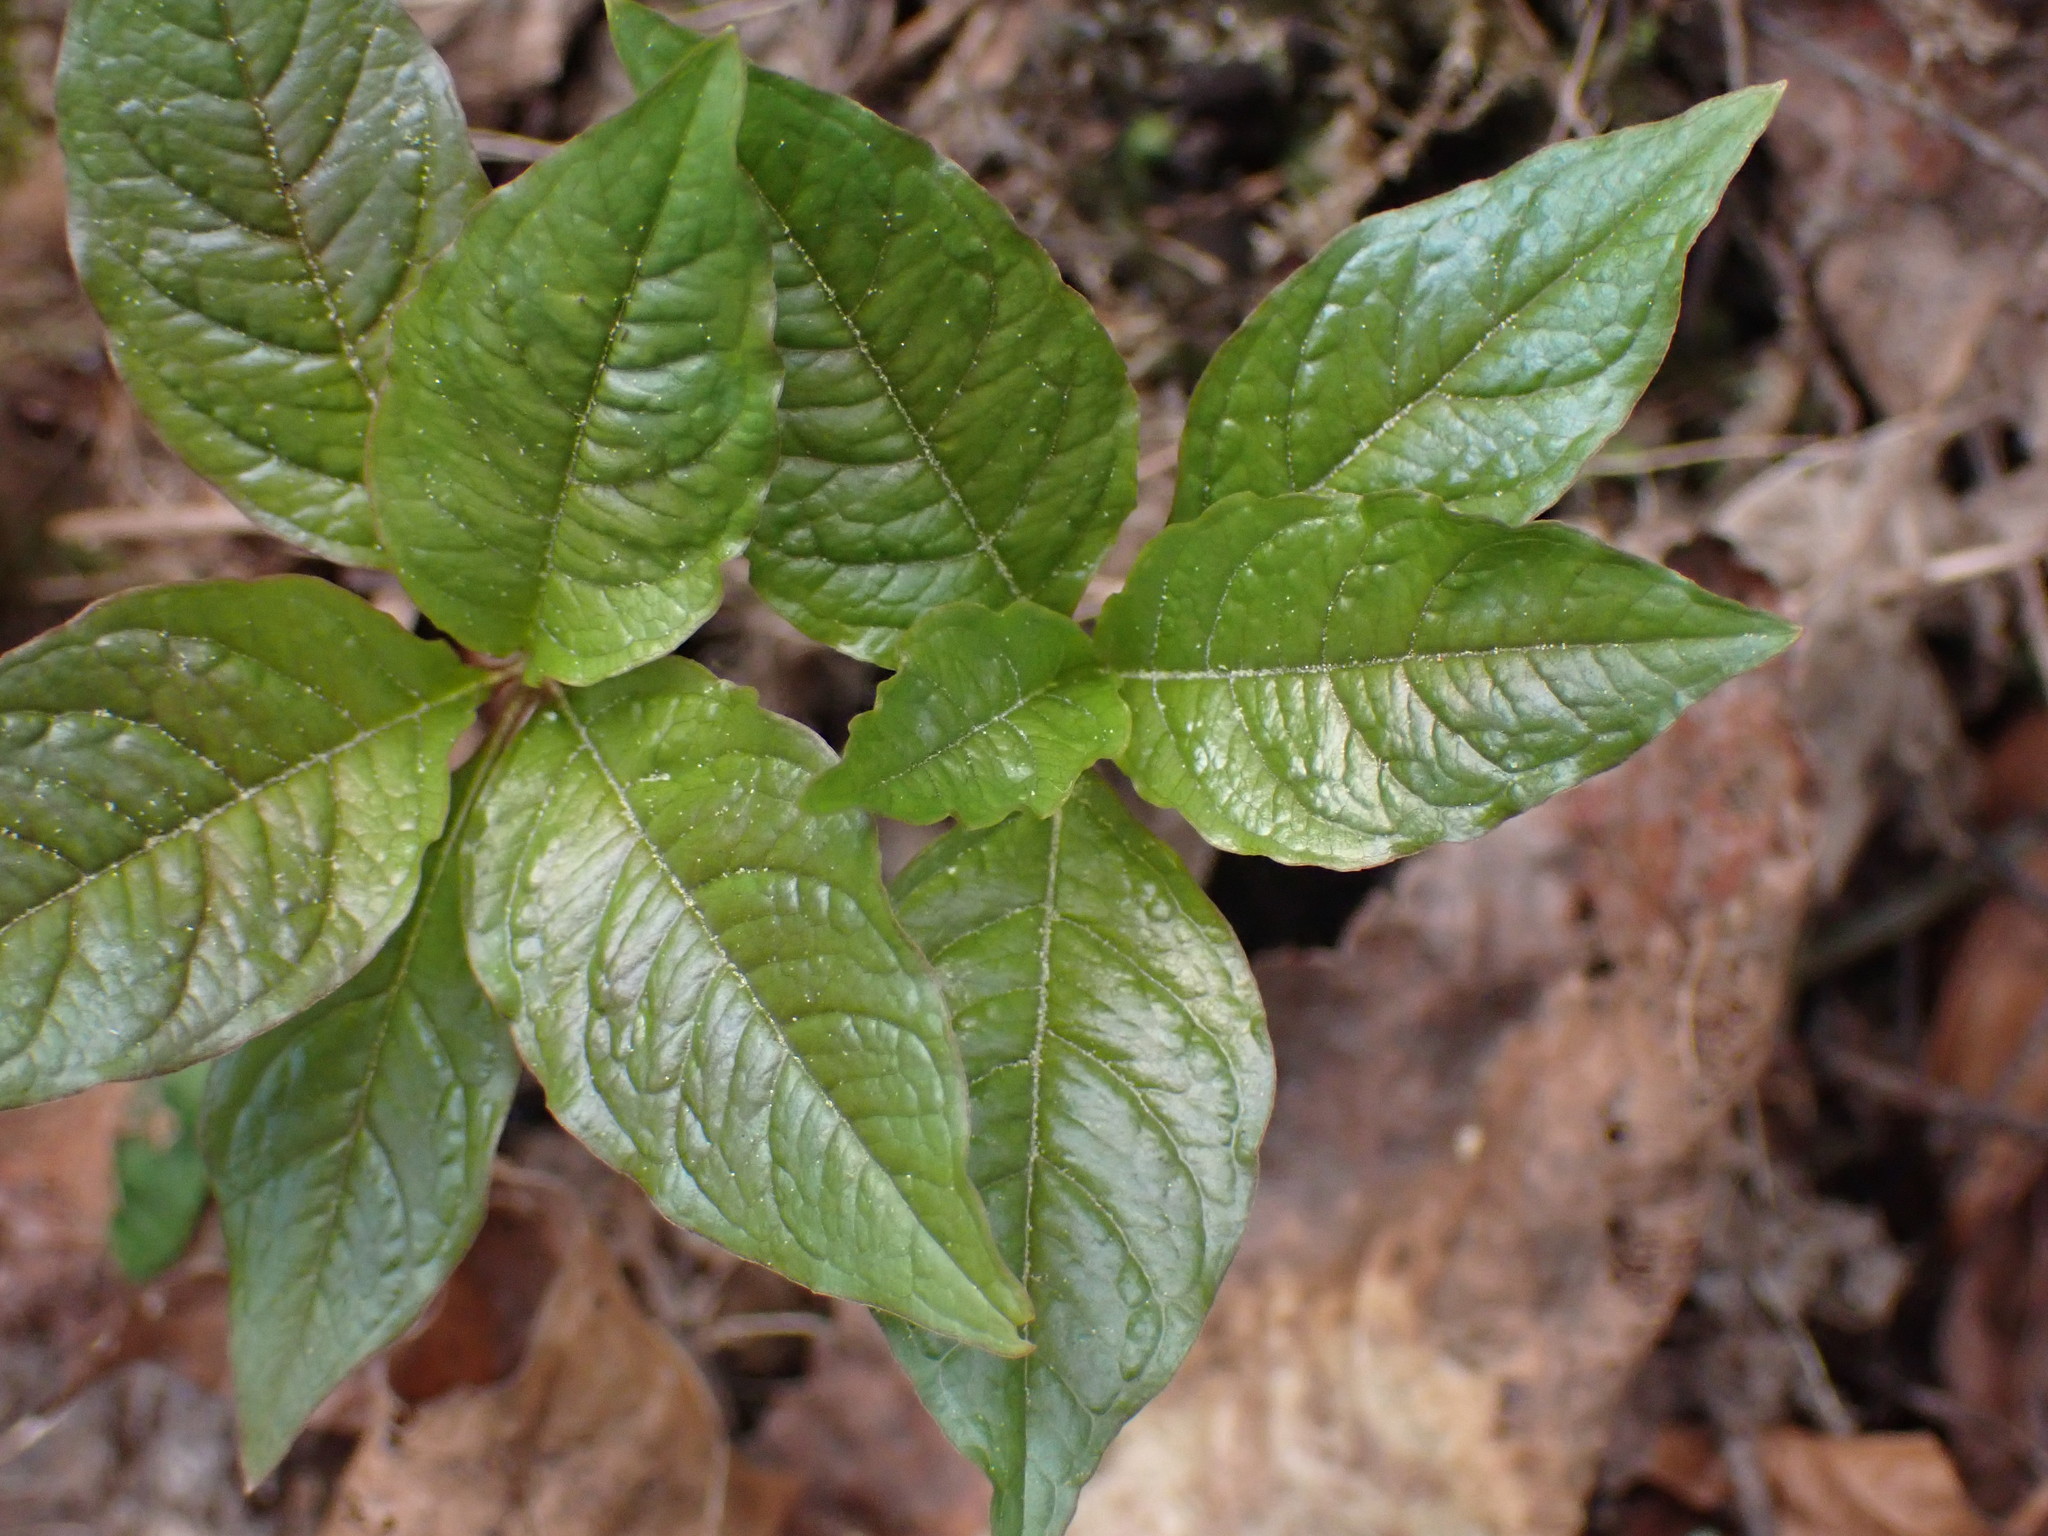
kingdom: Plantae
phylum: Tracheophyta
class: Magnoliopsida
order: Ericales
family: Primulaceae
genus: Lysimachia
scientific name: Lysimachia latifolia
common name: Pacific starflower
